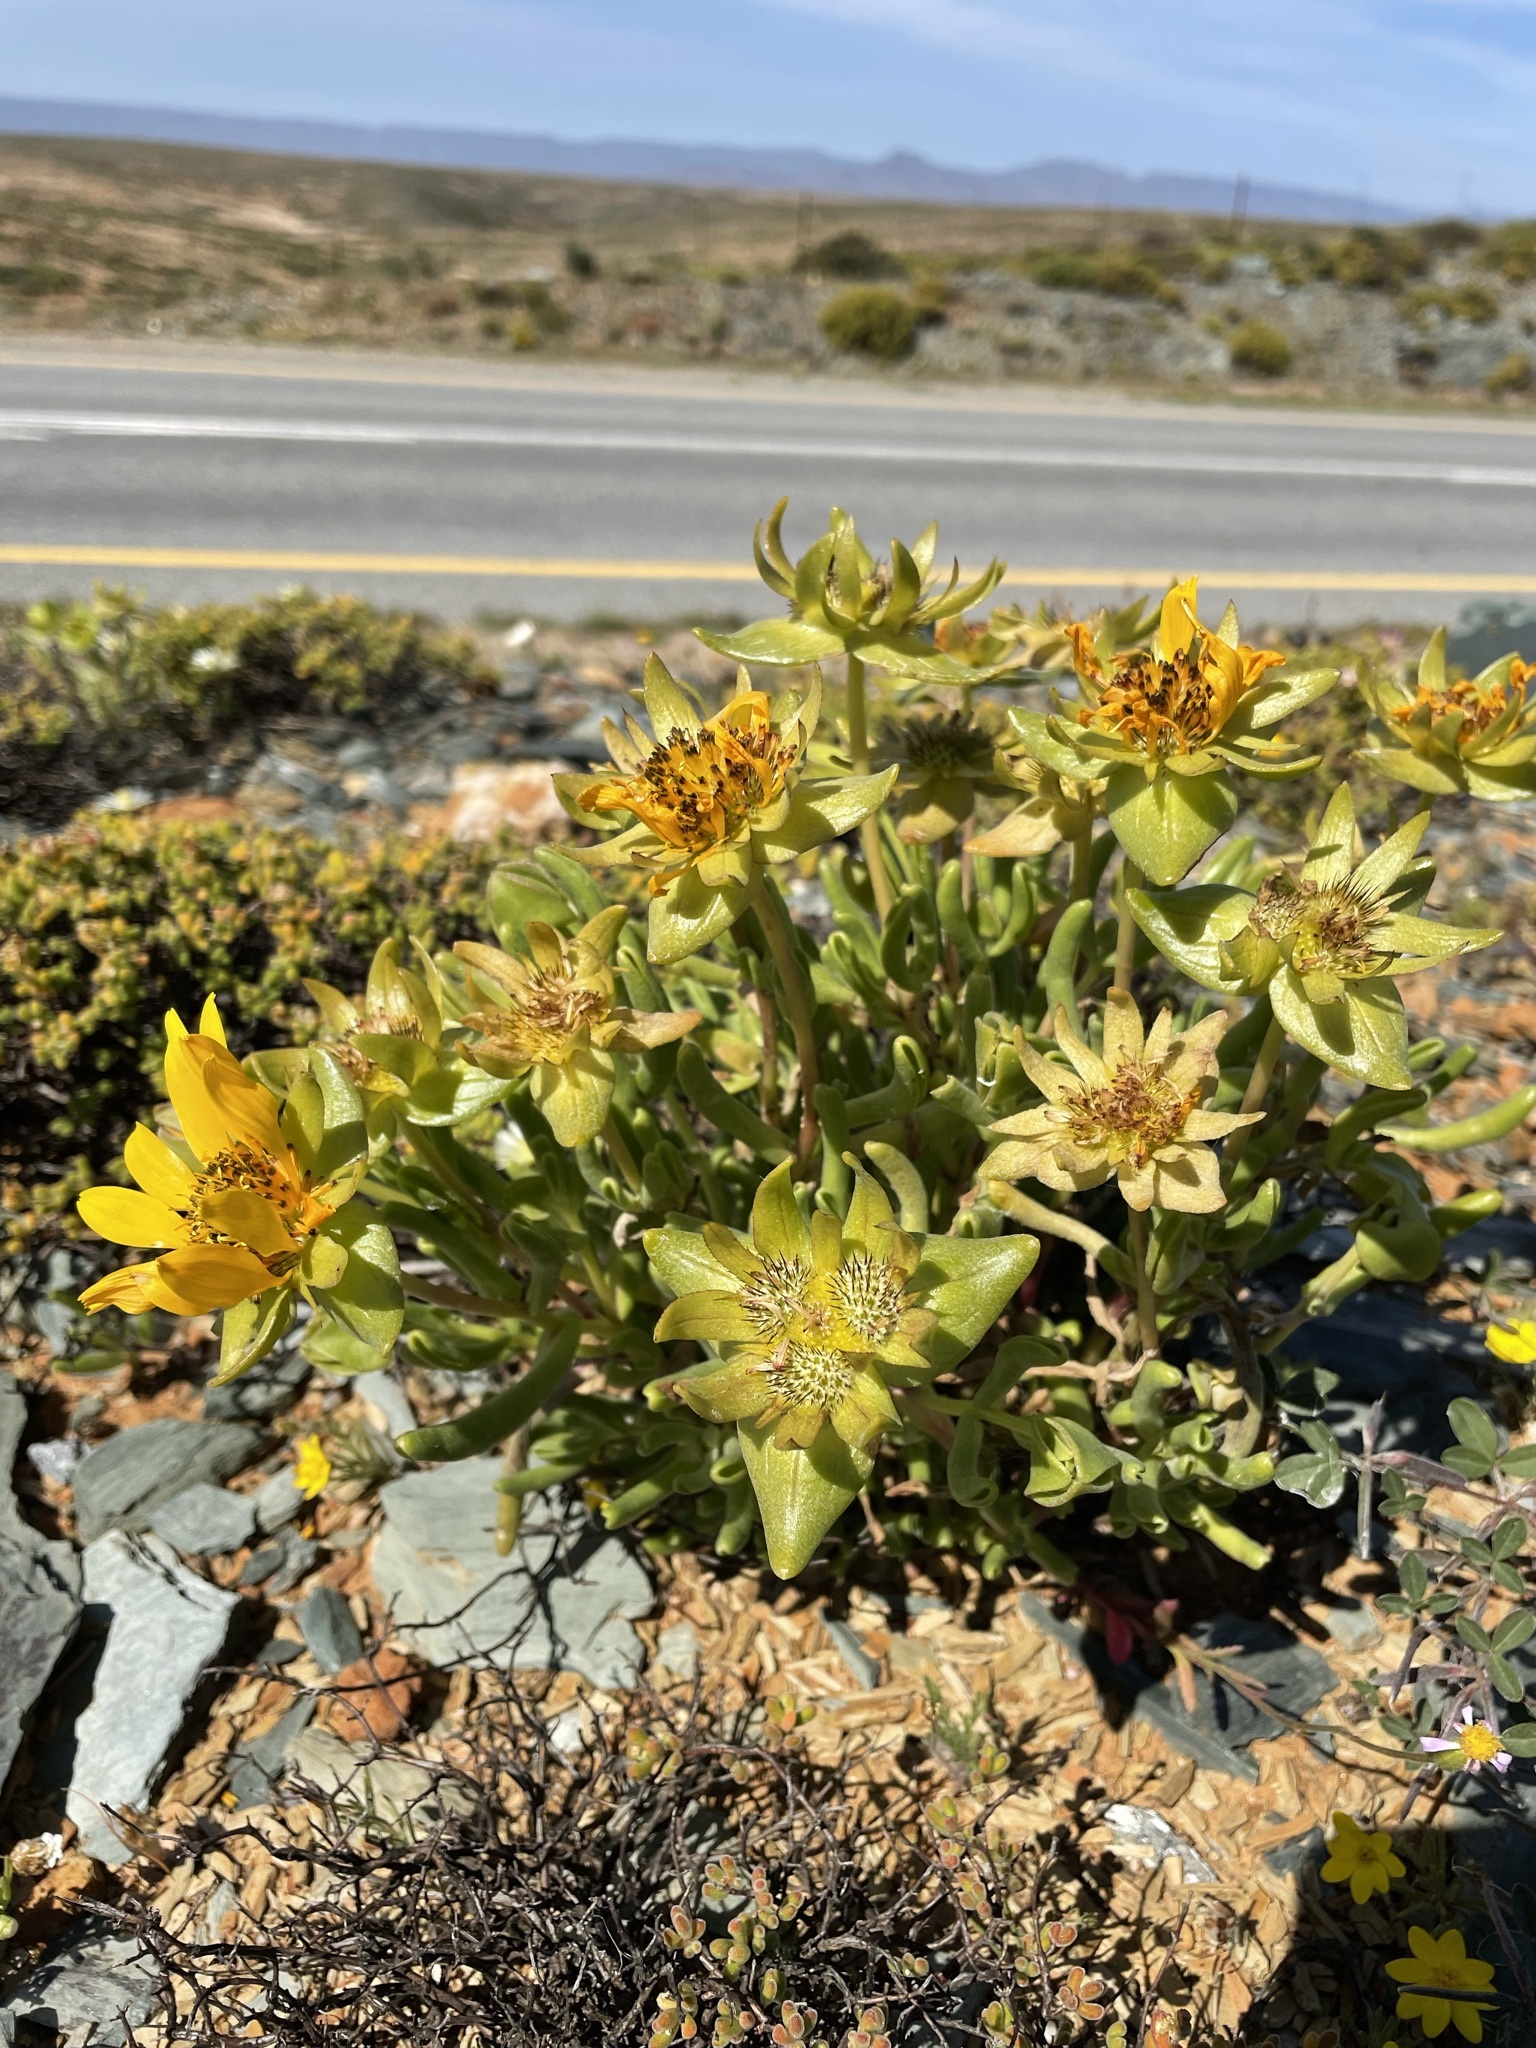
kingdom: Plantae
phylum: Tracheophyta
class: Magnoliopsida
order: Asterales
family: Asteraceae
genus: Didelta
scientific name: Didelta carnosa
